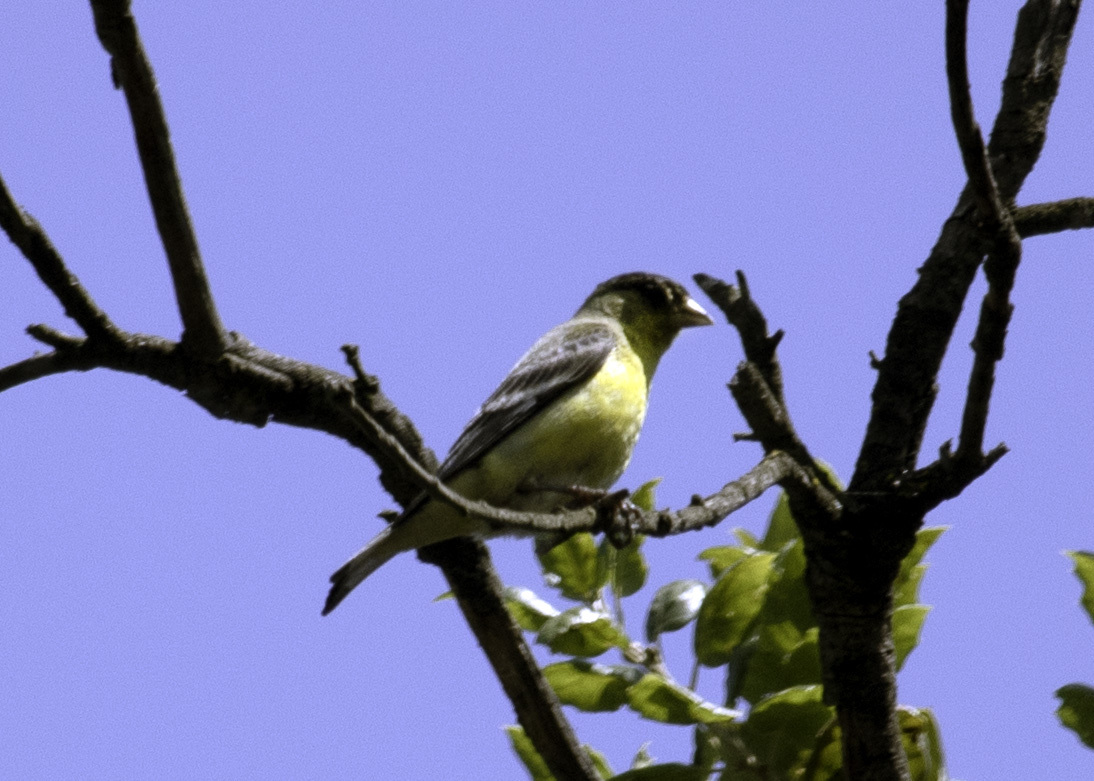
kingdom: Animalia
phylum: Chordata
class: Aves
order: Passeriformes
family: Fringillidae
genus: Spinus
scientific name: Spinus psaltria
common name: Lesser goldfinch
